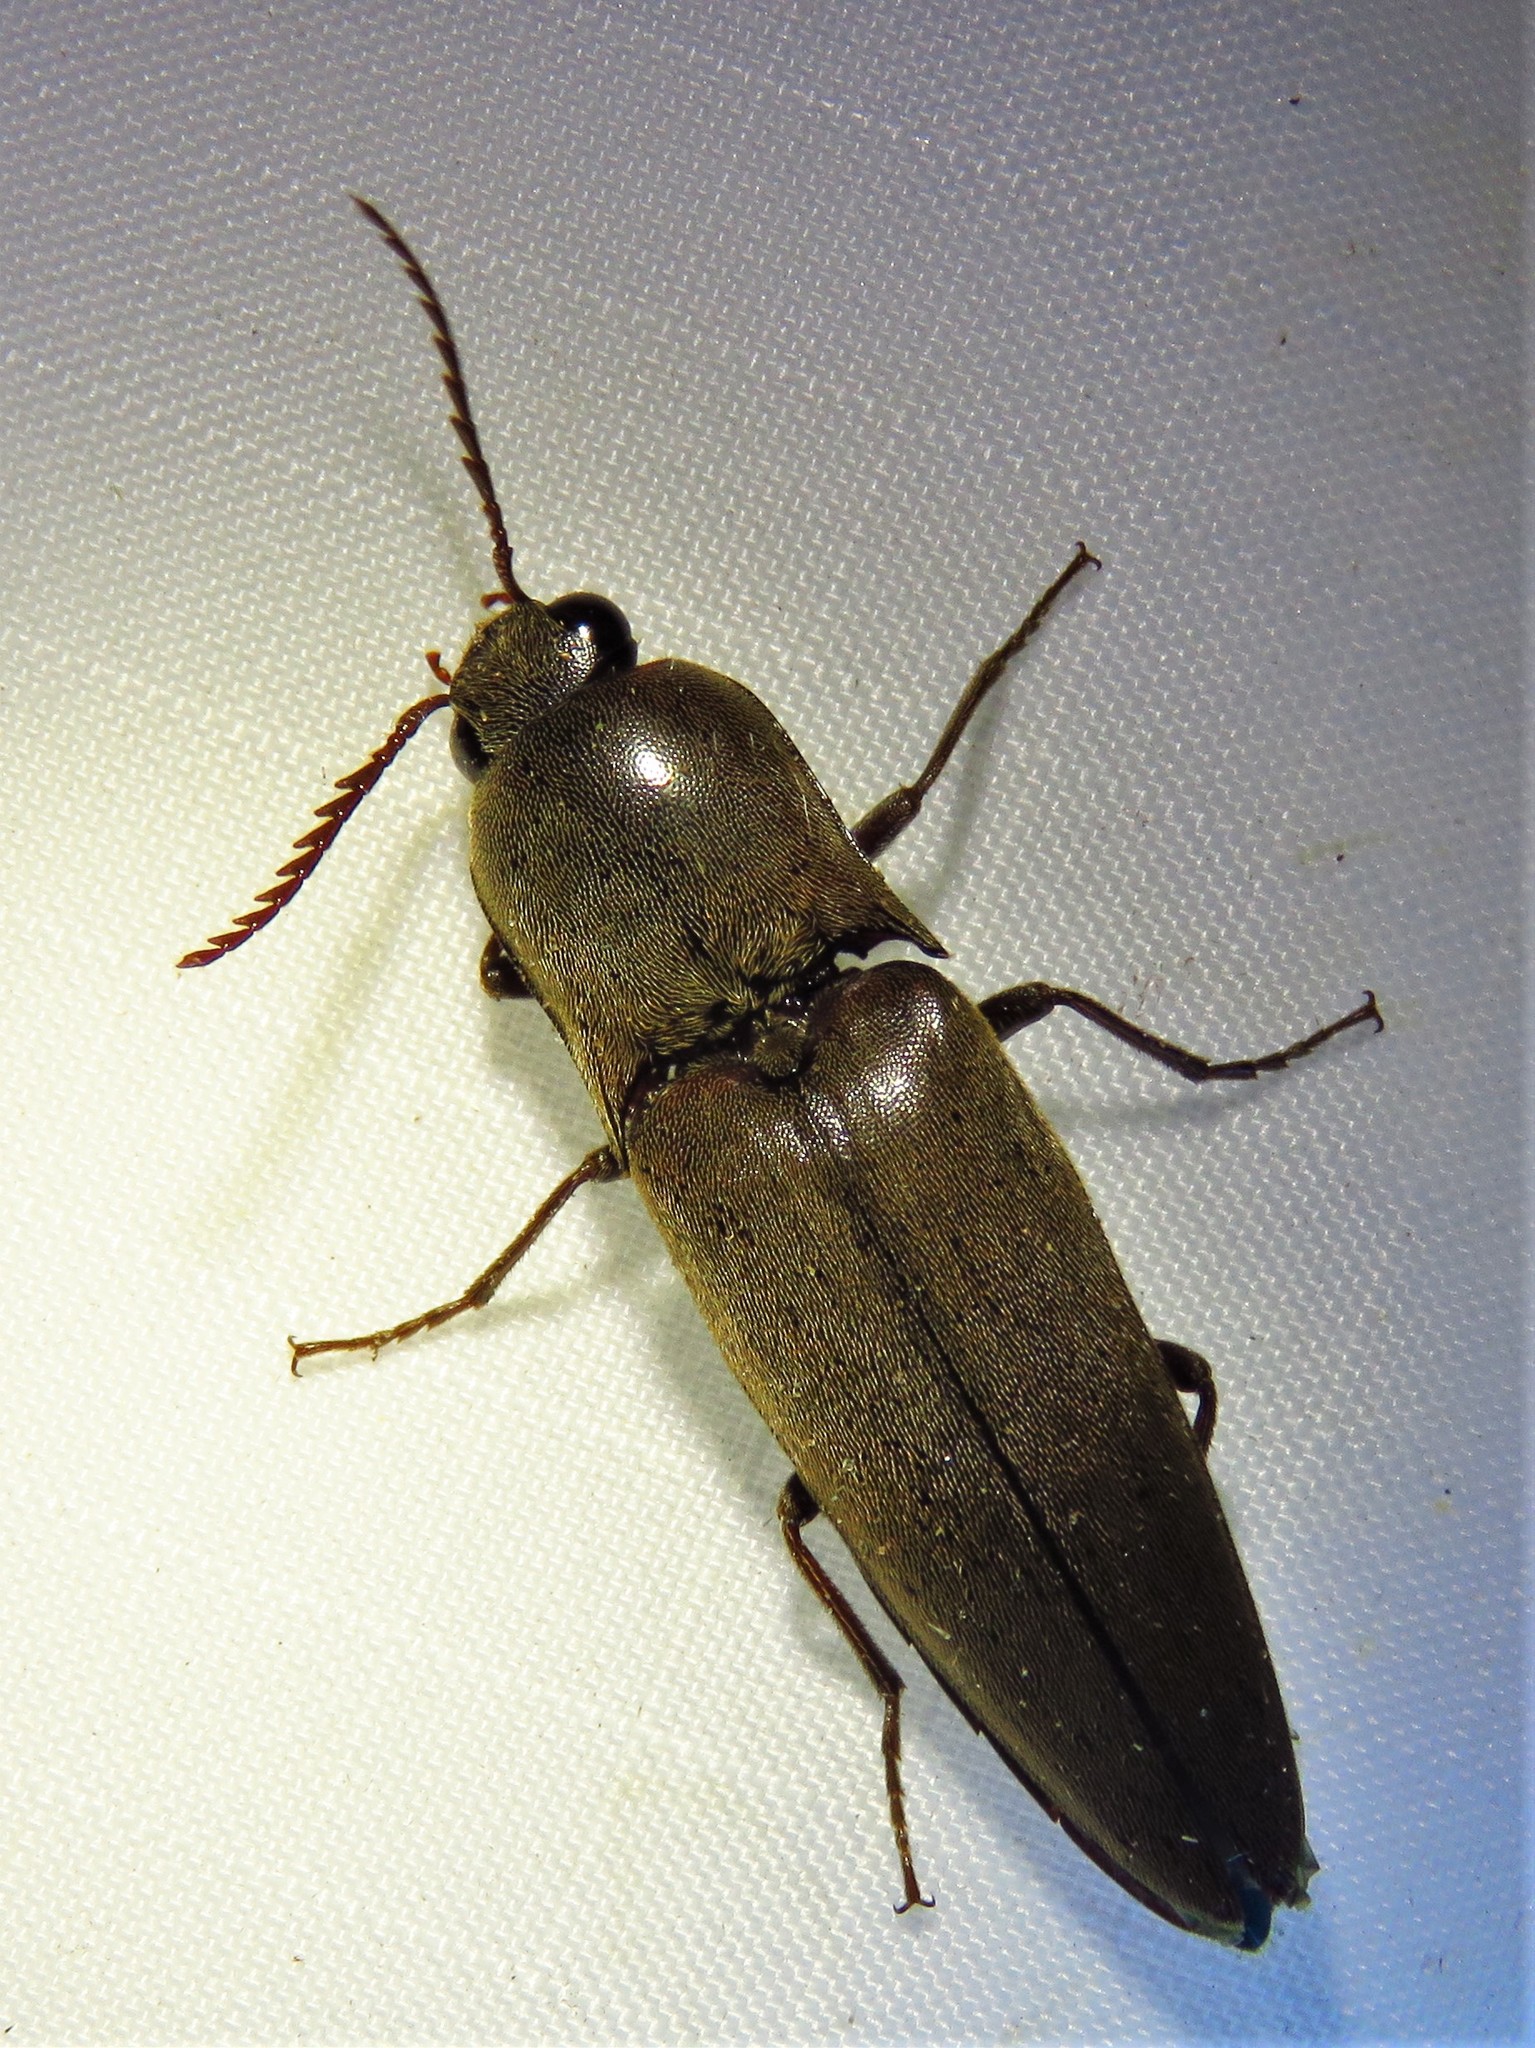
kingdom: Animalia
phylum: Arthropoda
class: Insecta
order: Coleoptera
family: Elateridae
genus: Orthostethus
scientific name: Orthostethus infuscatus
